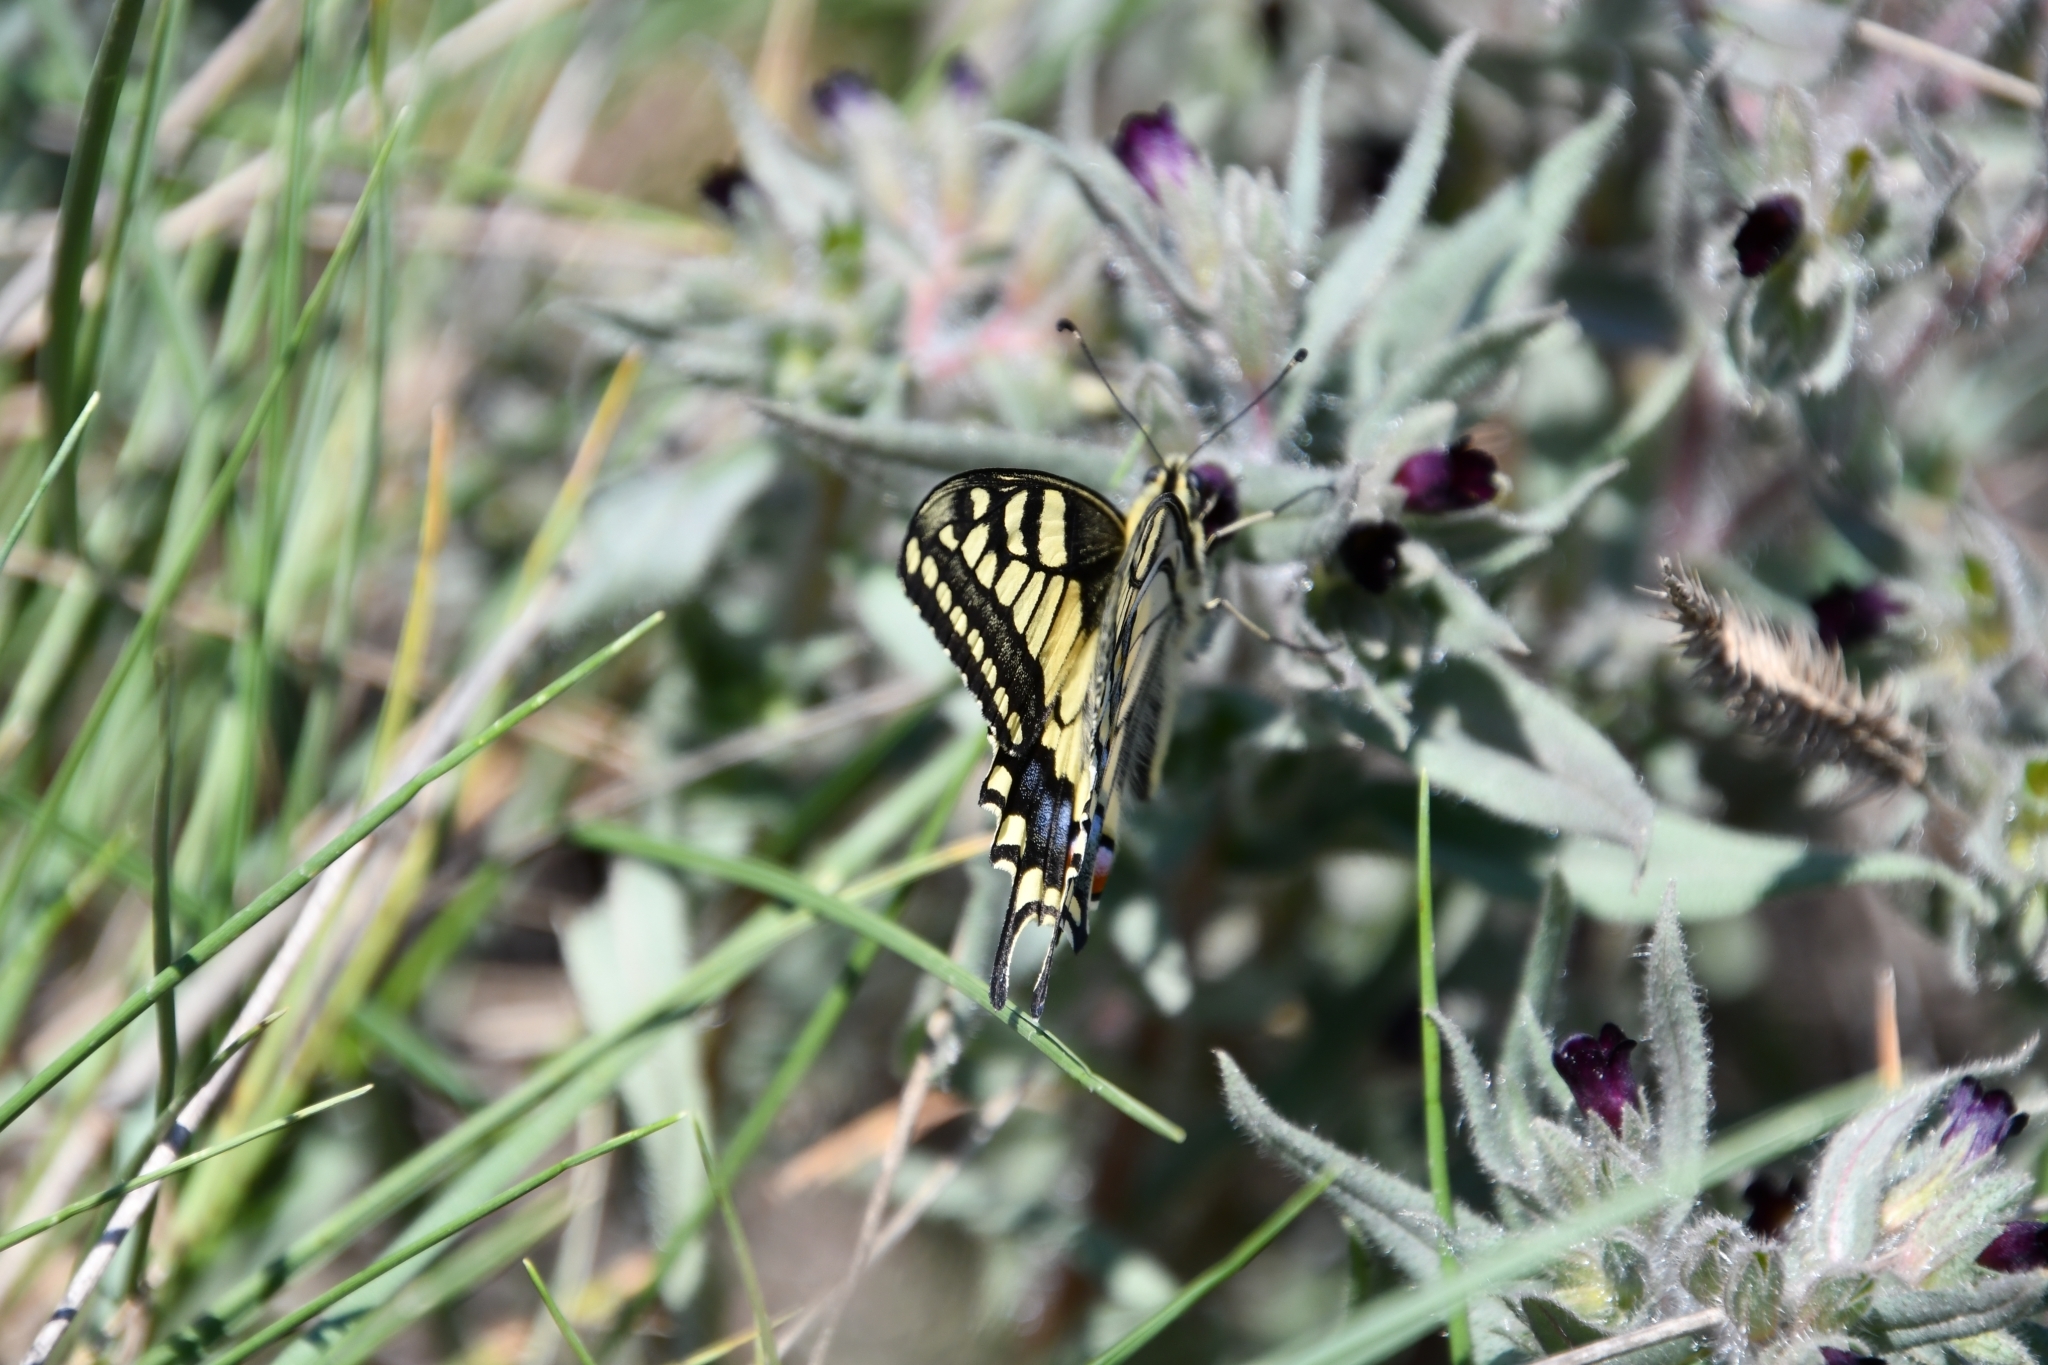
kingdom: Animalia
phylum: Arthropoda
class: Insecta
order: Lepidoptera
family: Papilionidae
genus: Papilio
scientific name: Papilio machaon
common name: Swallowtail
